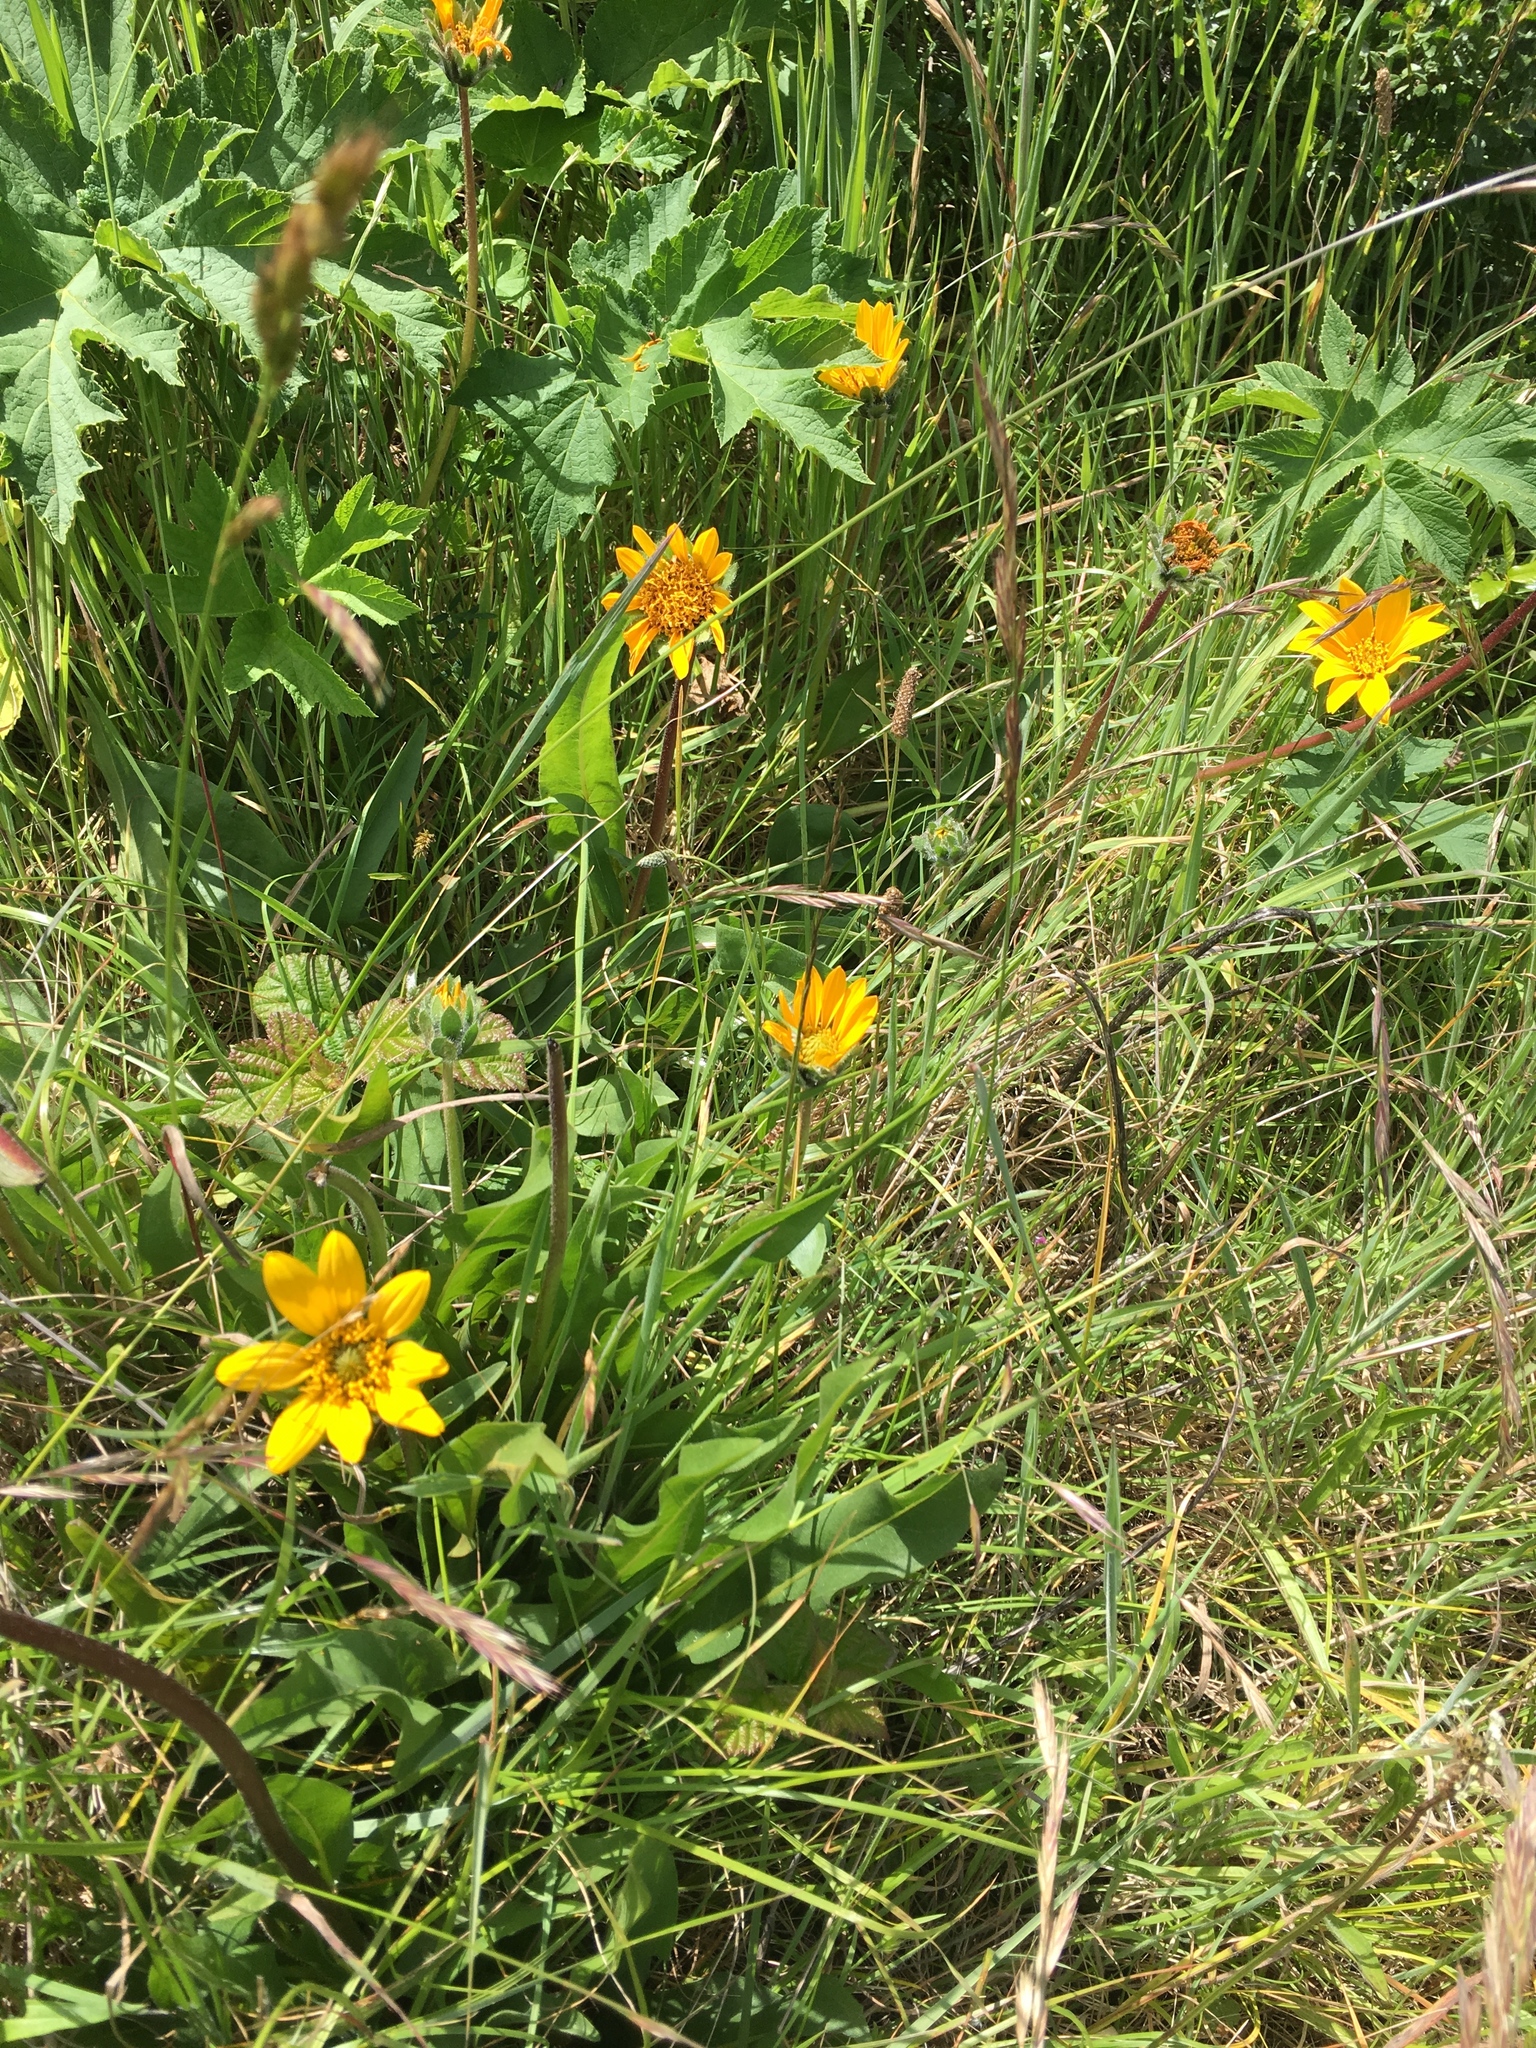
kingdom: Plantae
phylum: Tracheophyta
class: Magnoliopsida
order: Asterales
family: Asteraceae
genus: Wyethia
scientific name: Wyethia angustifolia
